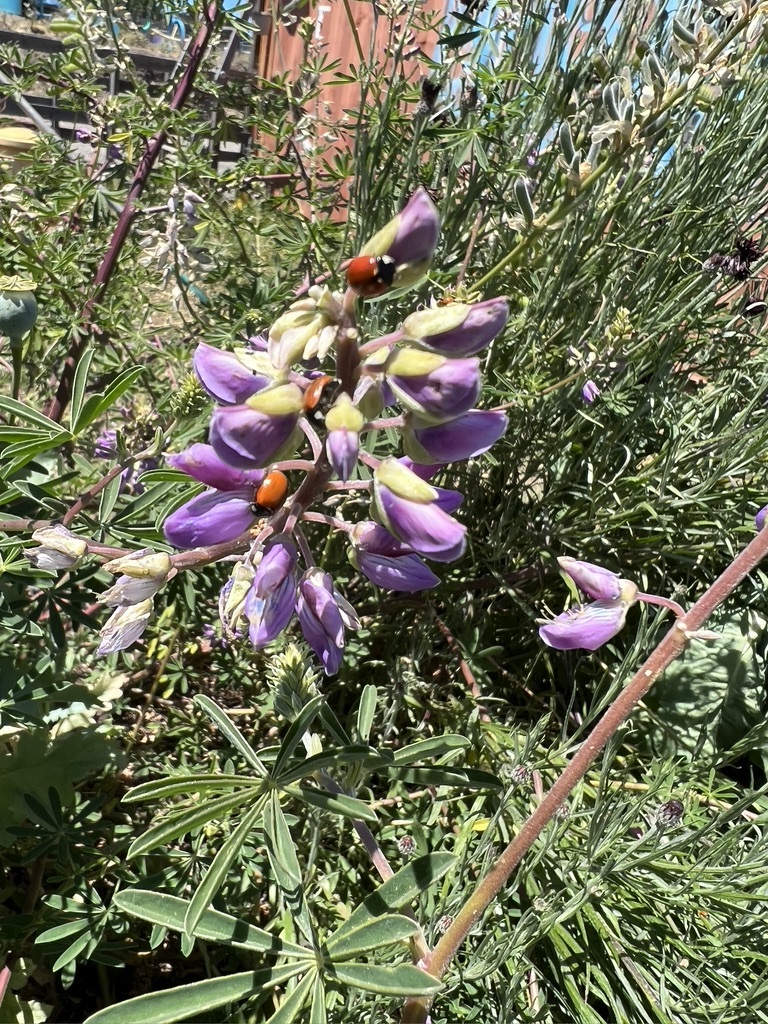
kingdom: Animalia
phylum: Arthropoda
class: Insecta
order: Coleoptera
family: Coccinellidae
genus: Coccinella
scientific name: Coccinella californica
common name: Lady beetle
